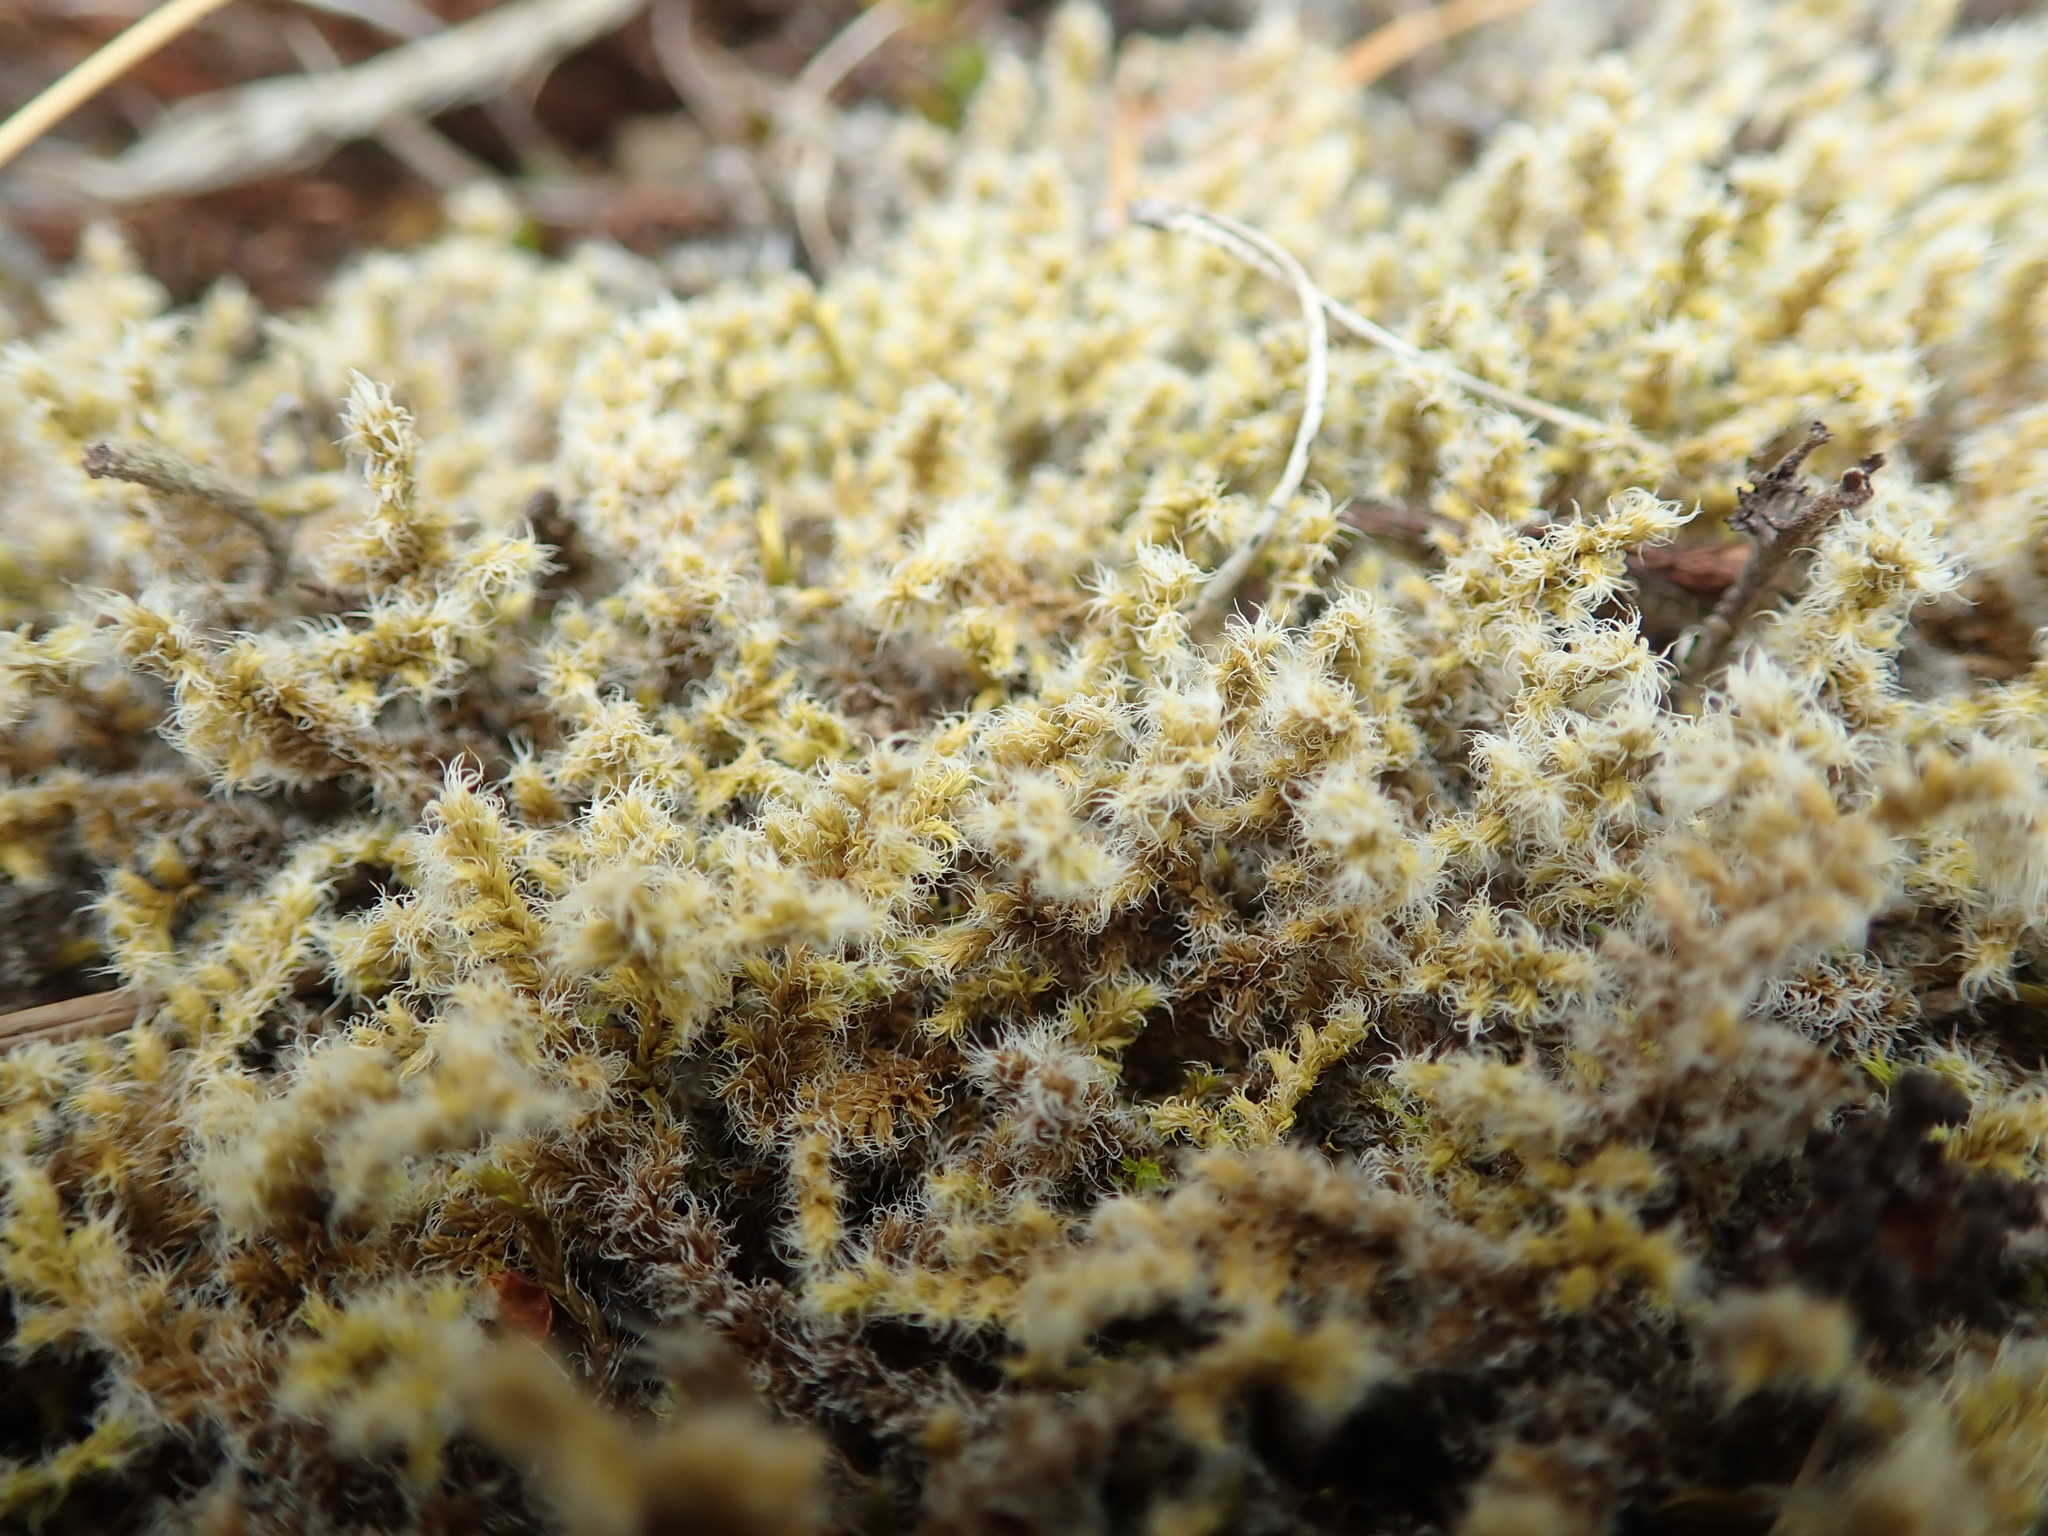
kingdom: Plantae
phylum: Bryophyta
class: Bryopsida
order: Grimmiales
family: Grimmiaceae
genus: Niphotrichum
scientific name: Niphotrichum elongatum
